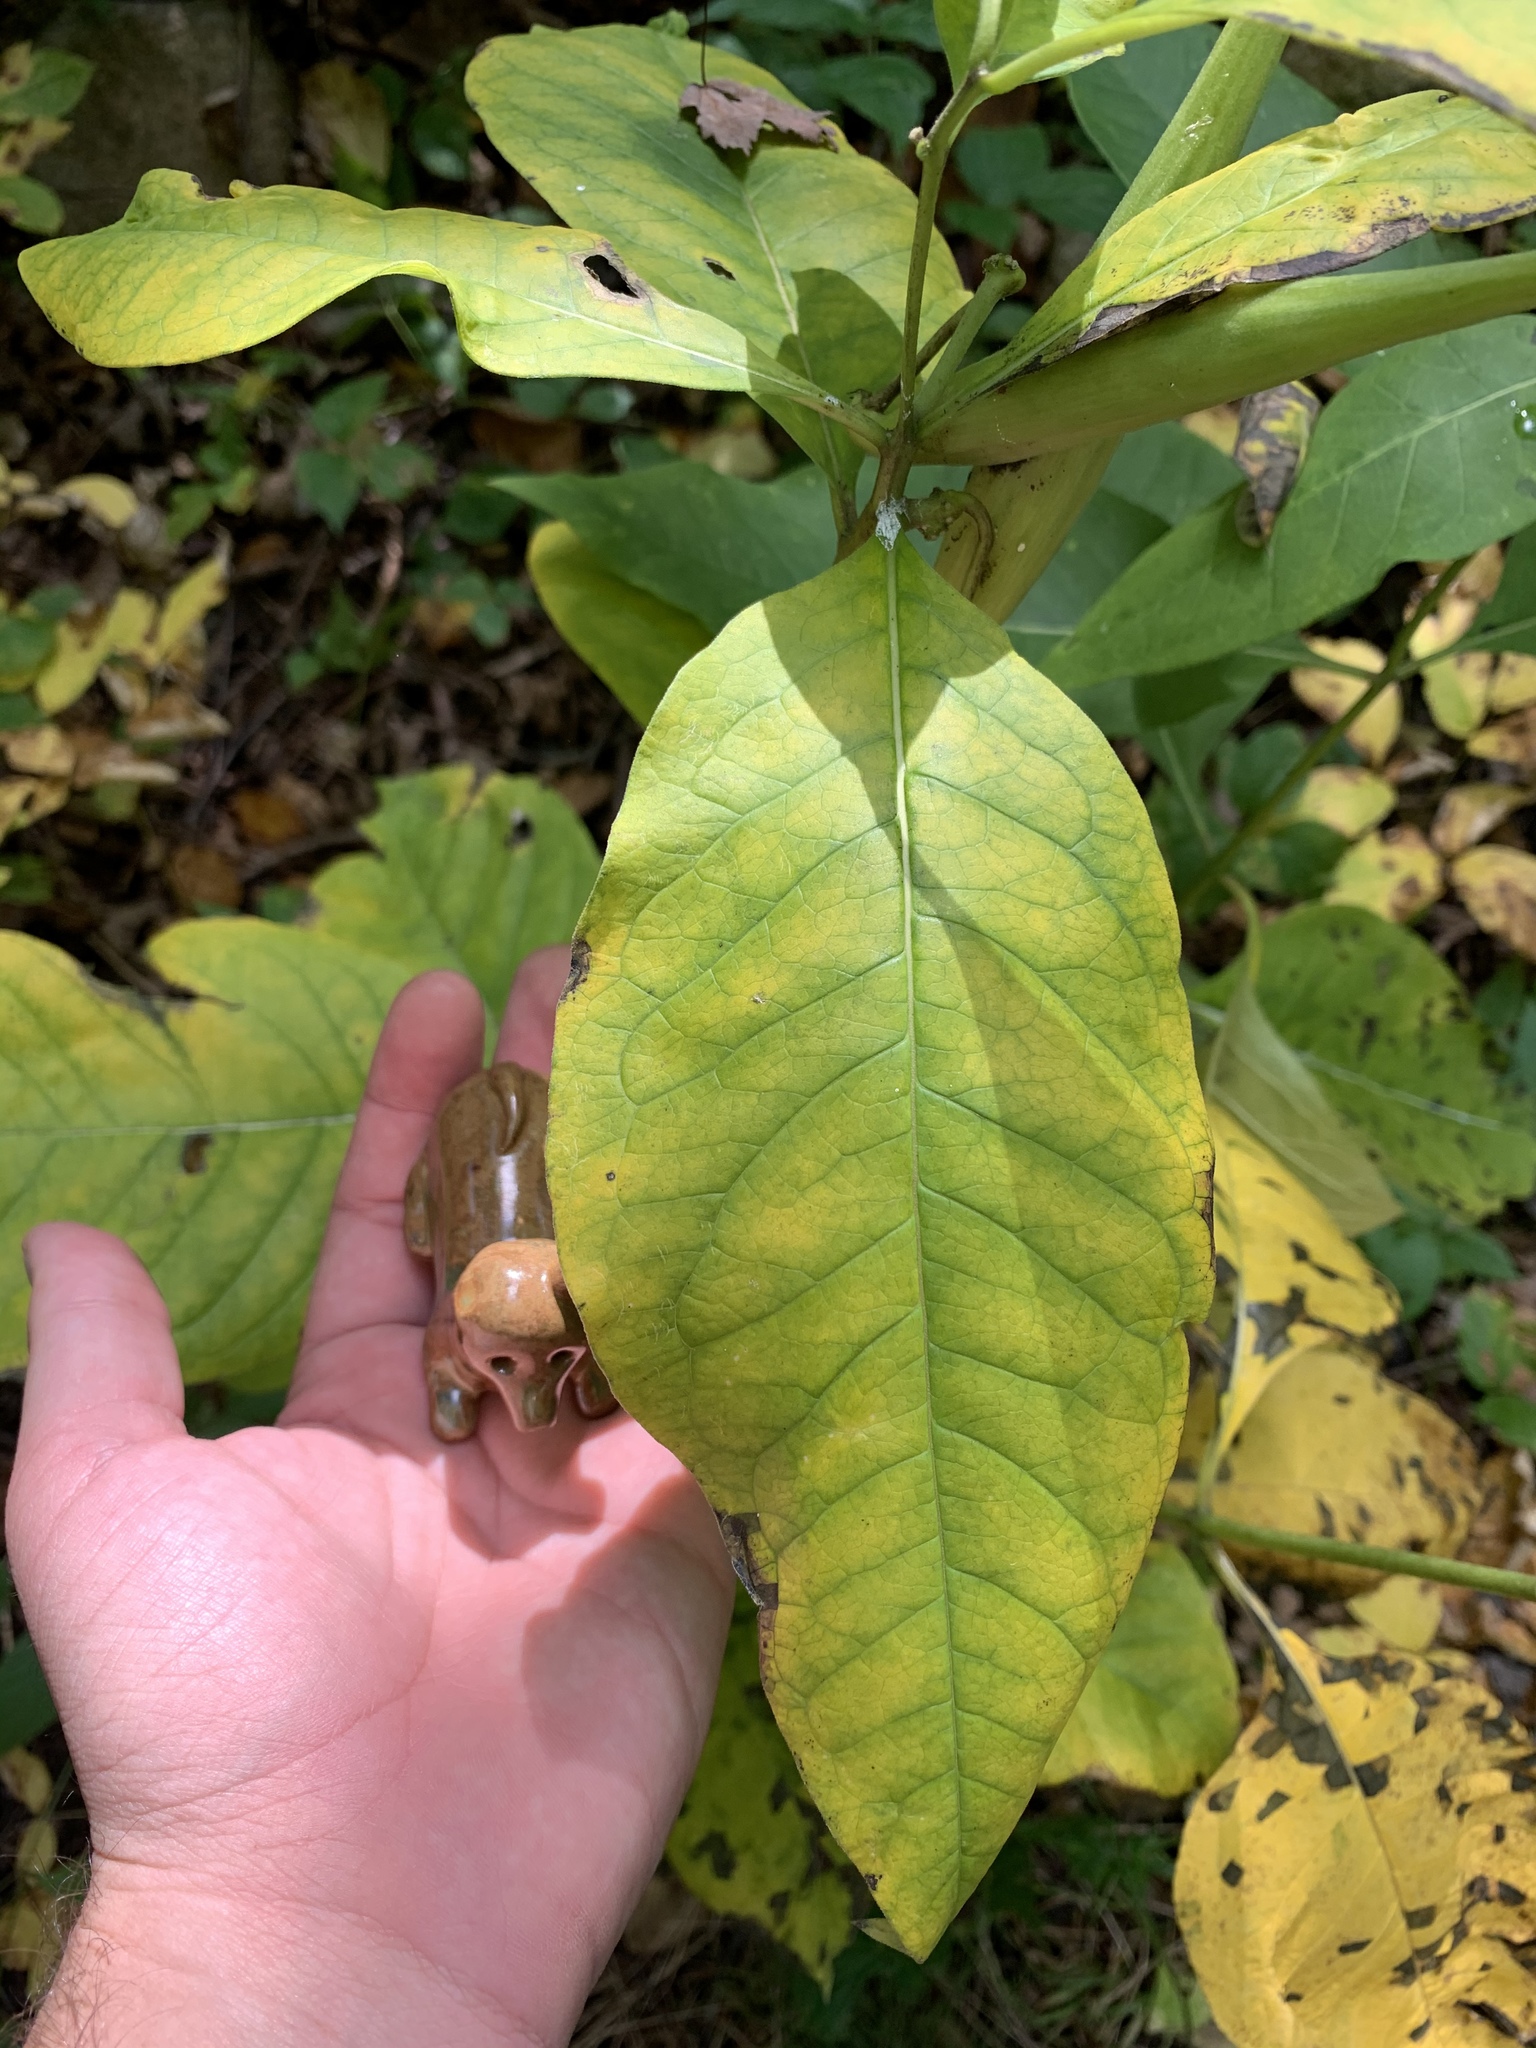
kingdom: Plantae
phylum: Tracheophyta
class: Magnoliopsida
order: Gentianales
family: Apocynaceae
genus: Asclepias
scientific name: Asclepias exaltata
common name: Poke milkweed
